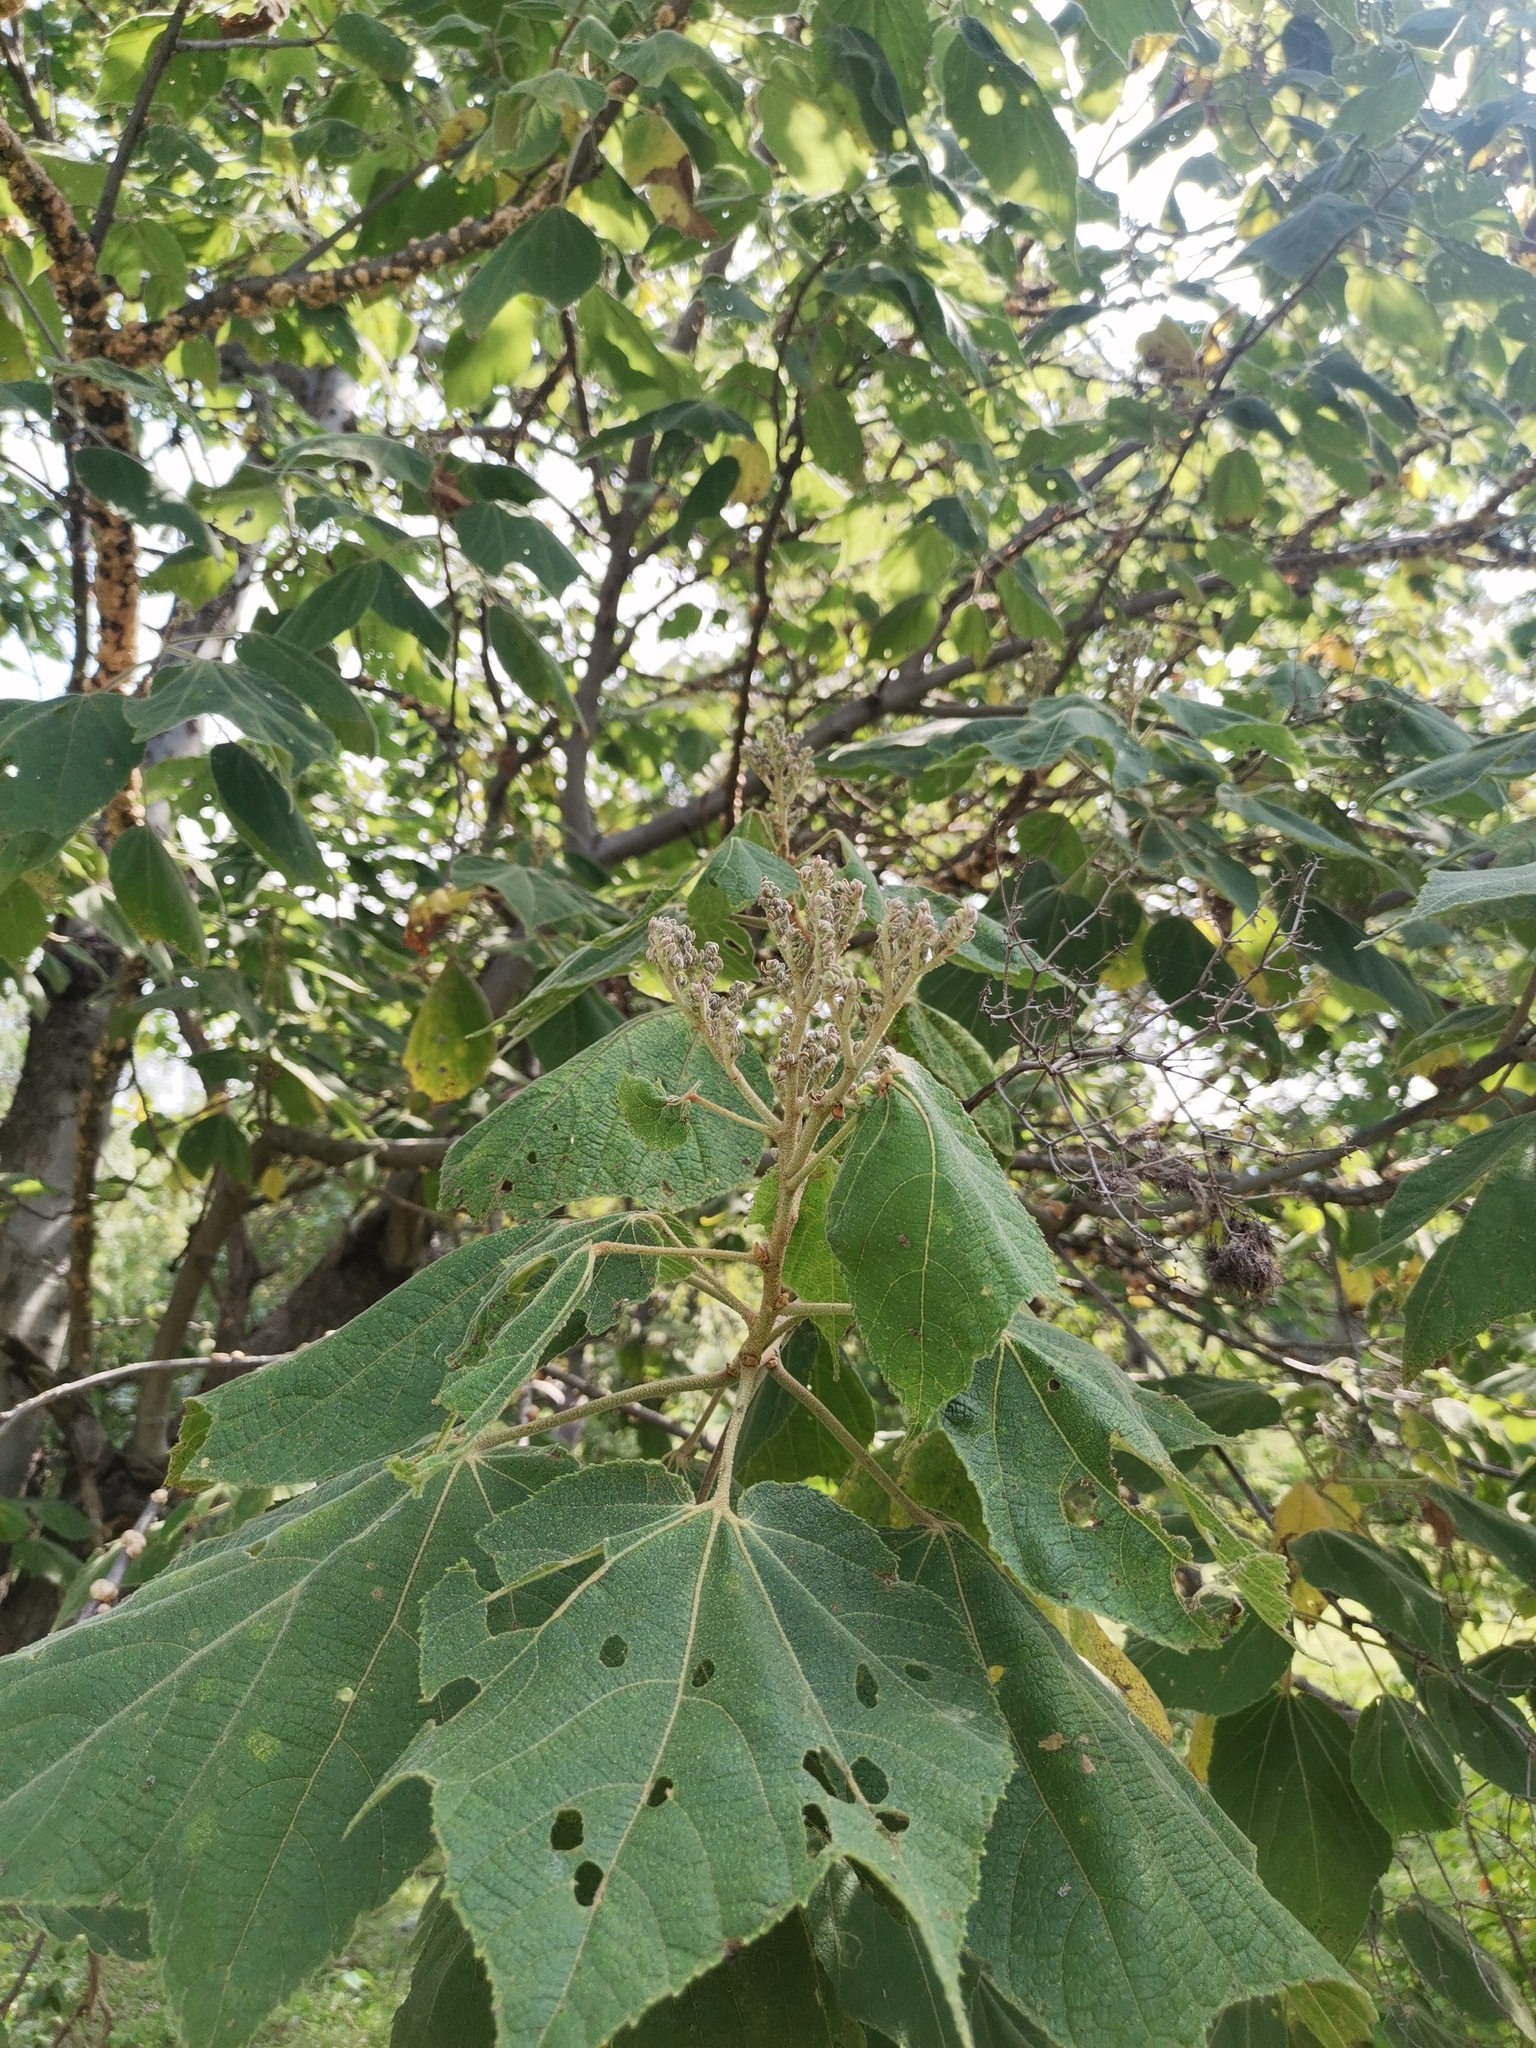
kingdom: Plantae
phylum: Tracheophyta
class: Magnoliopsida
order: Malvales
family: Malvaceae
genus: Heliocarpus
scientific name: Heliocarpus terebinthinaceus
